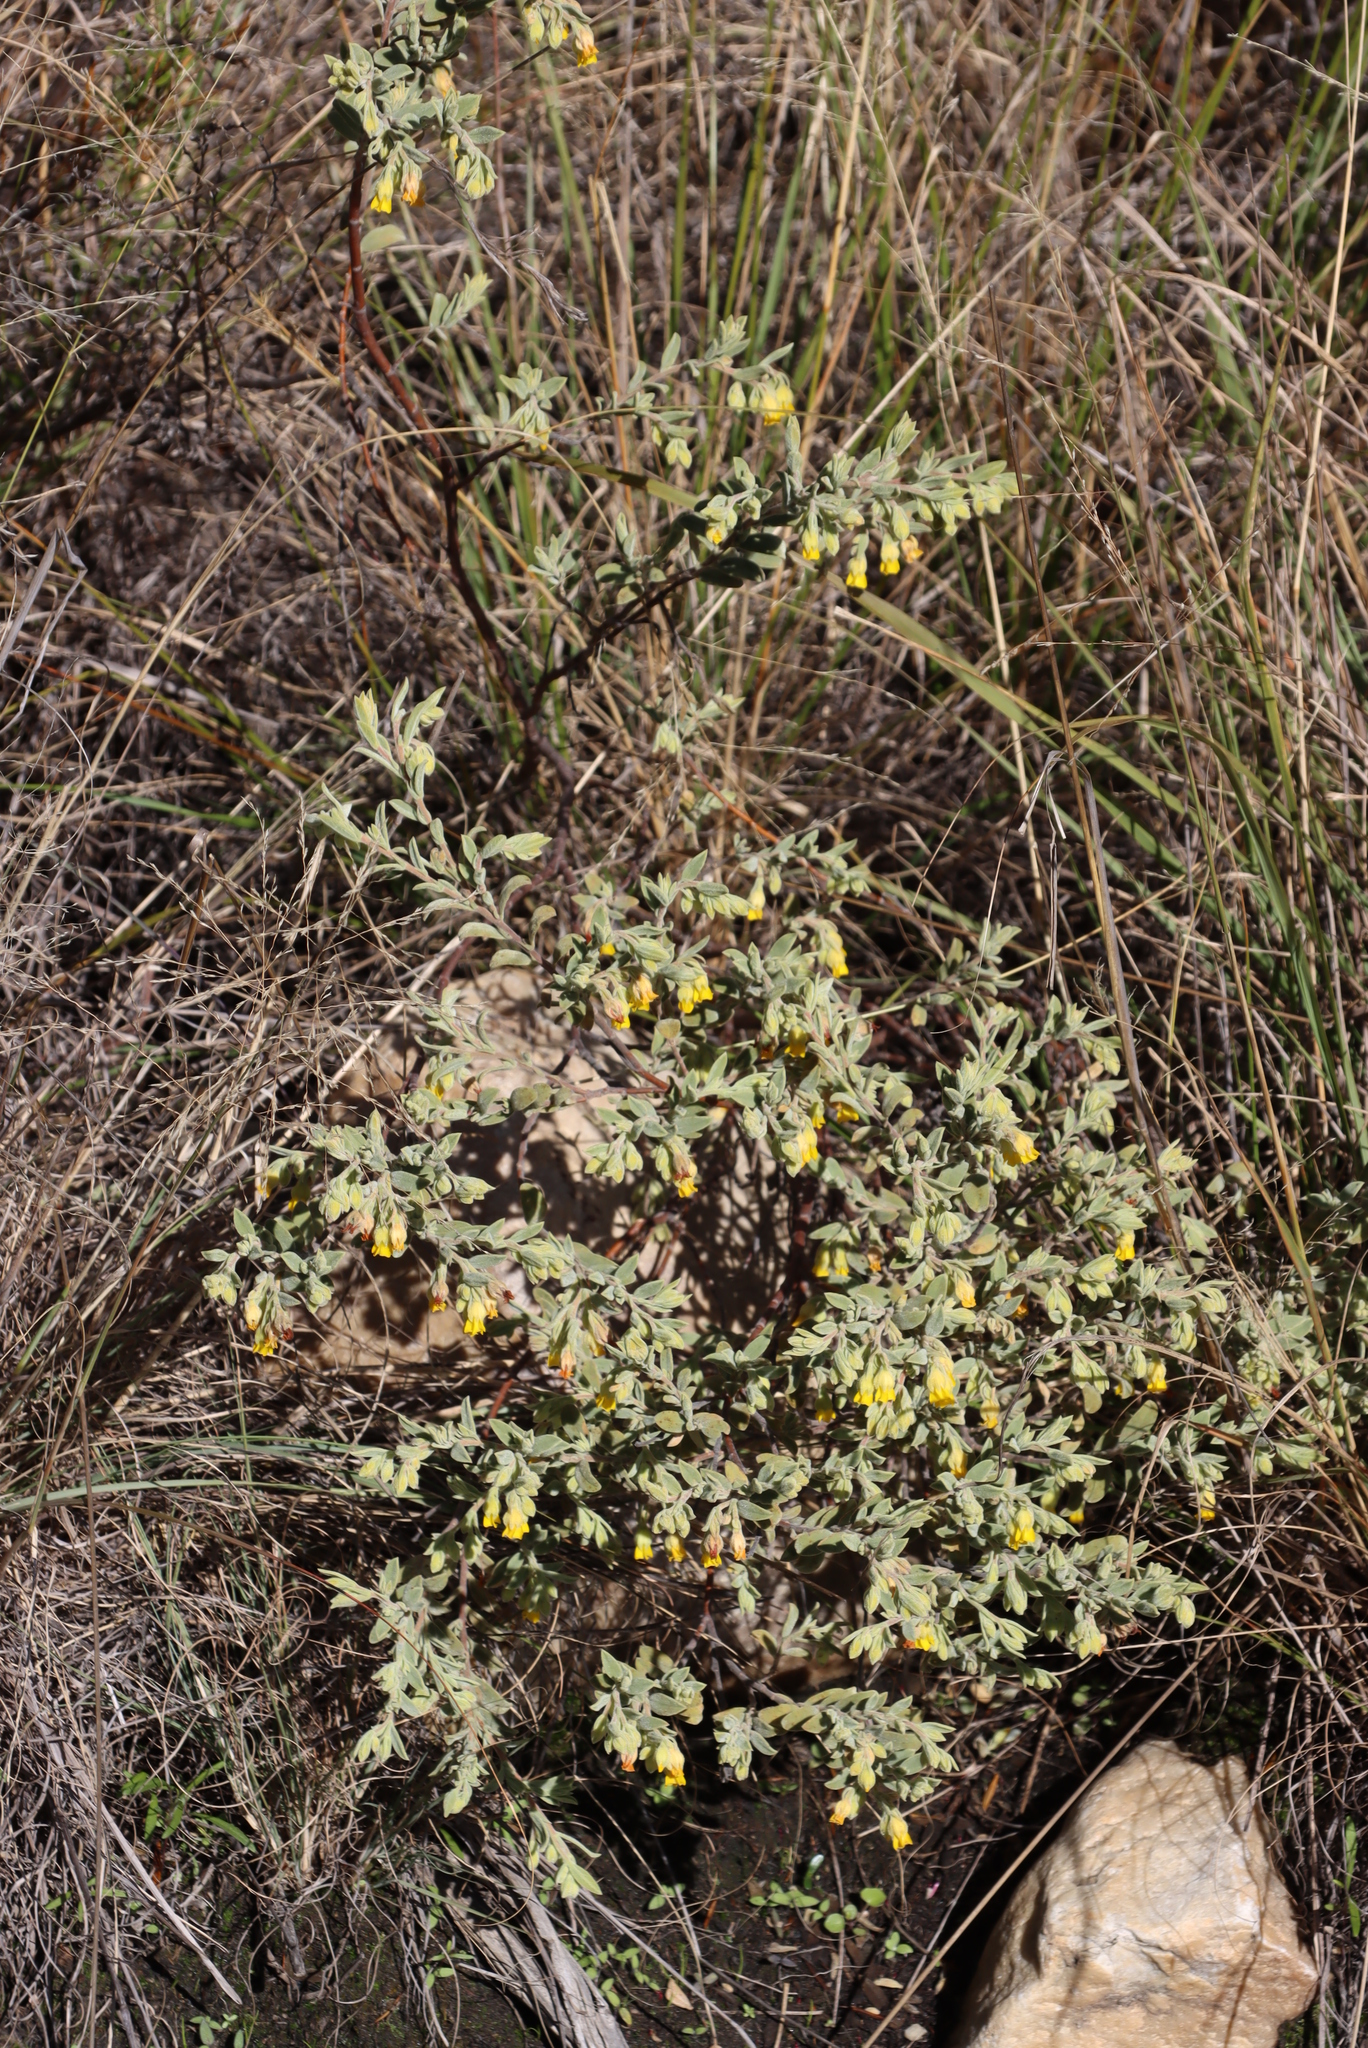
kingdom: Plantae
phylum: Tracheophyta
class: Magnoliopsida
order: Malvales
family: Malvaceae
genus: Hermannia
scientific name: Hermannia velutina
